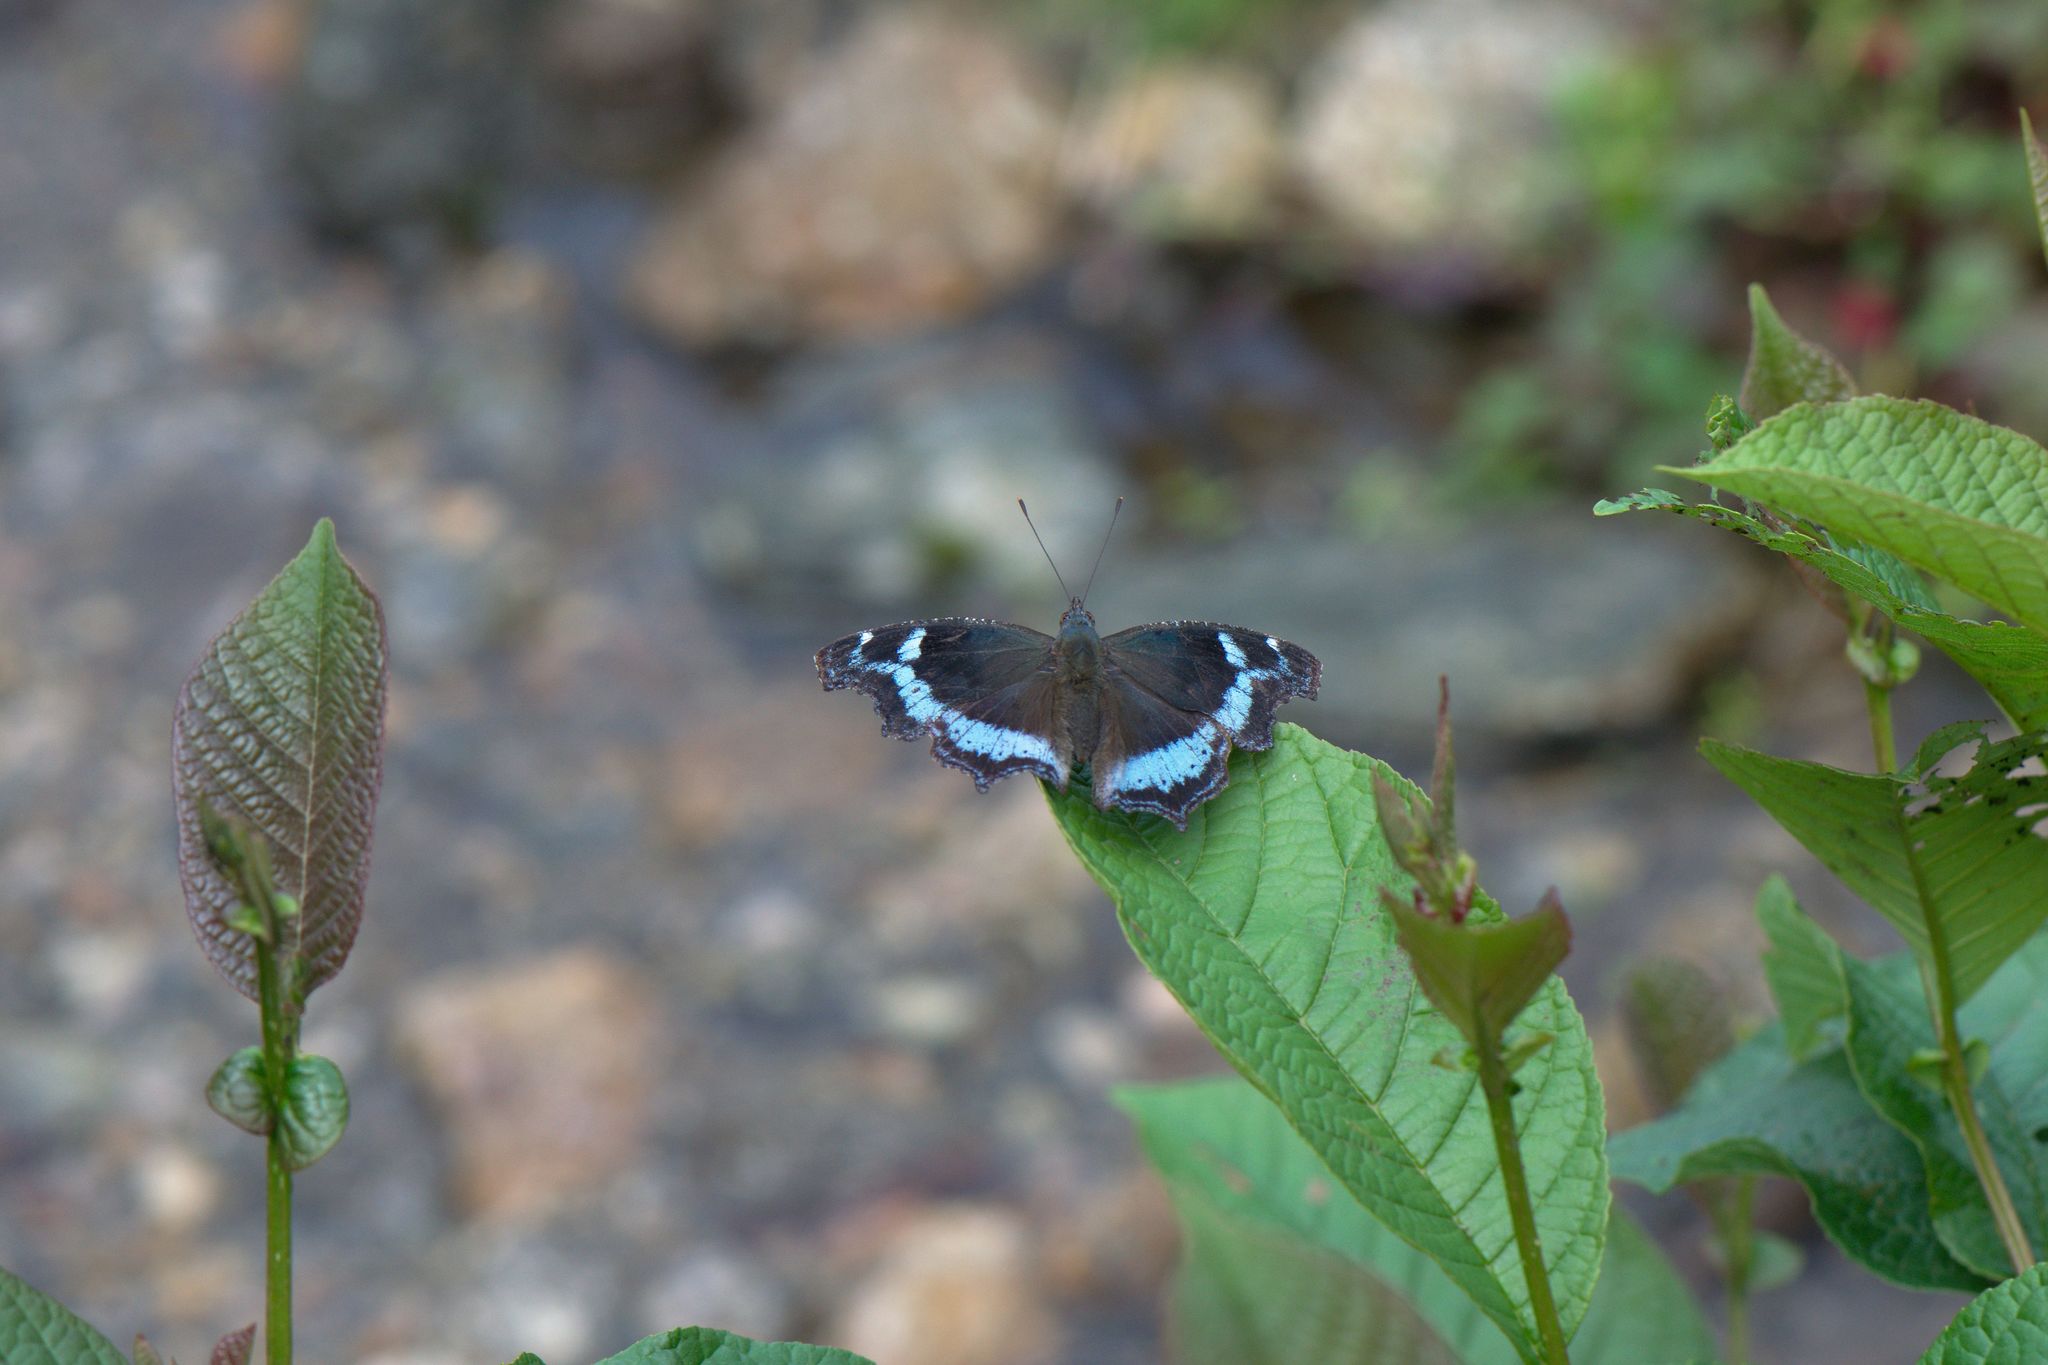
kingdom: Animalia
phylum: Arthropoda
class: Insecta
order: Lepidoptera
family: Nymphalidae
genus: Vanessa
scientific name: Vanessa Kaniska canace
